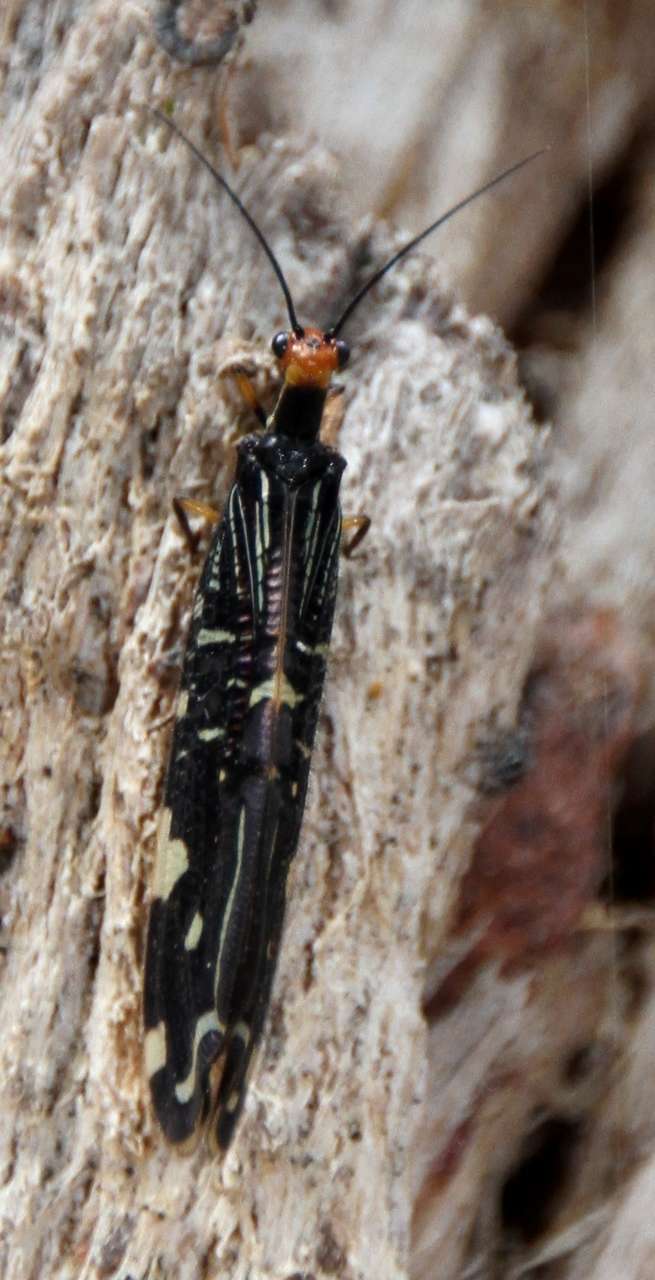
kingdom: Animalia
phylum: Arthropoda
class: Insecta
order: Neuroptera
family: Osmylidae
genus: Porismus
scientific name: Porismus strigatus
